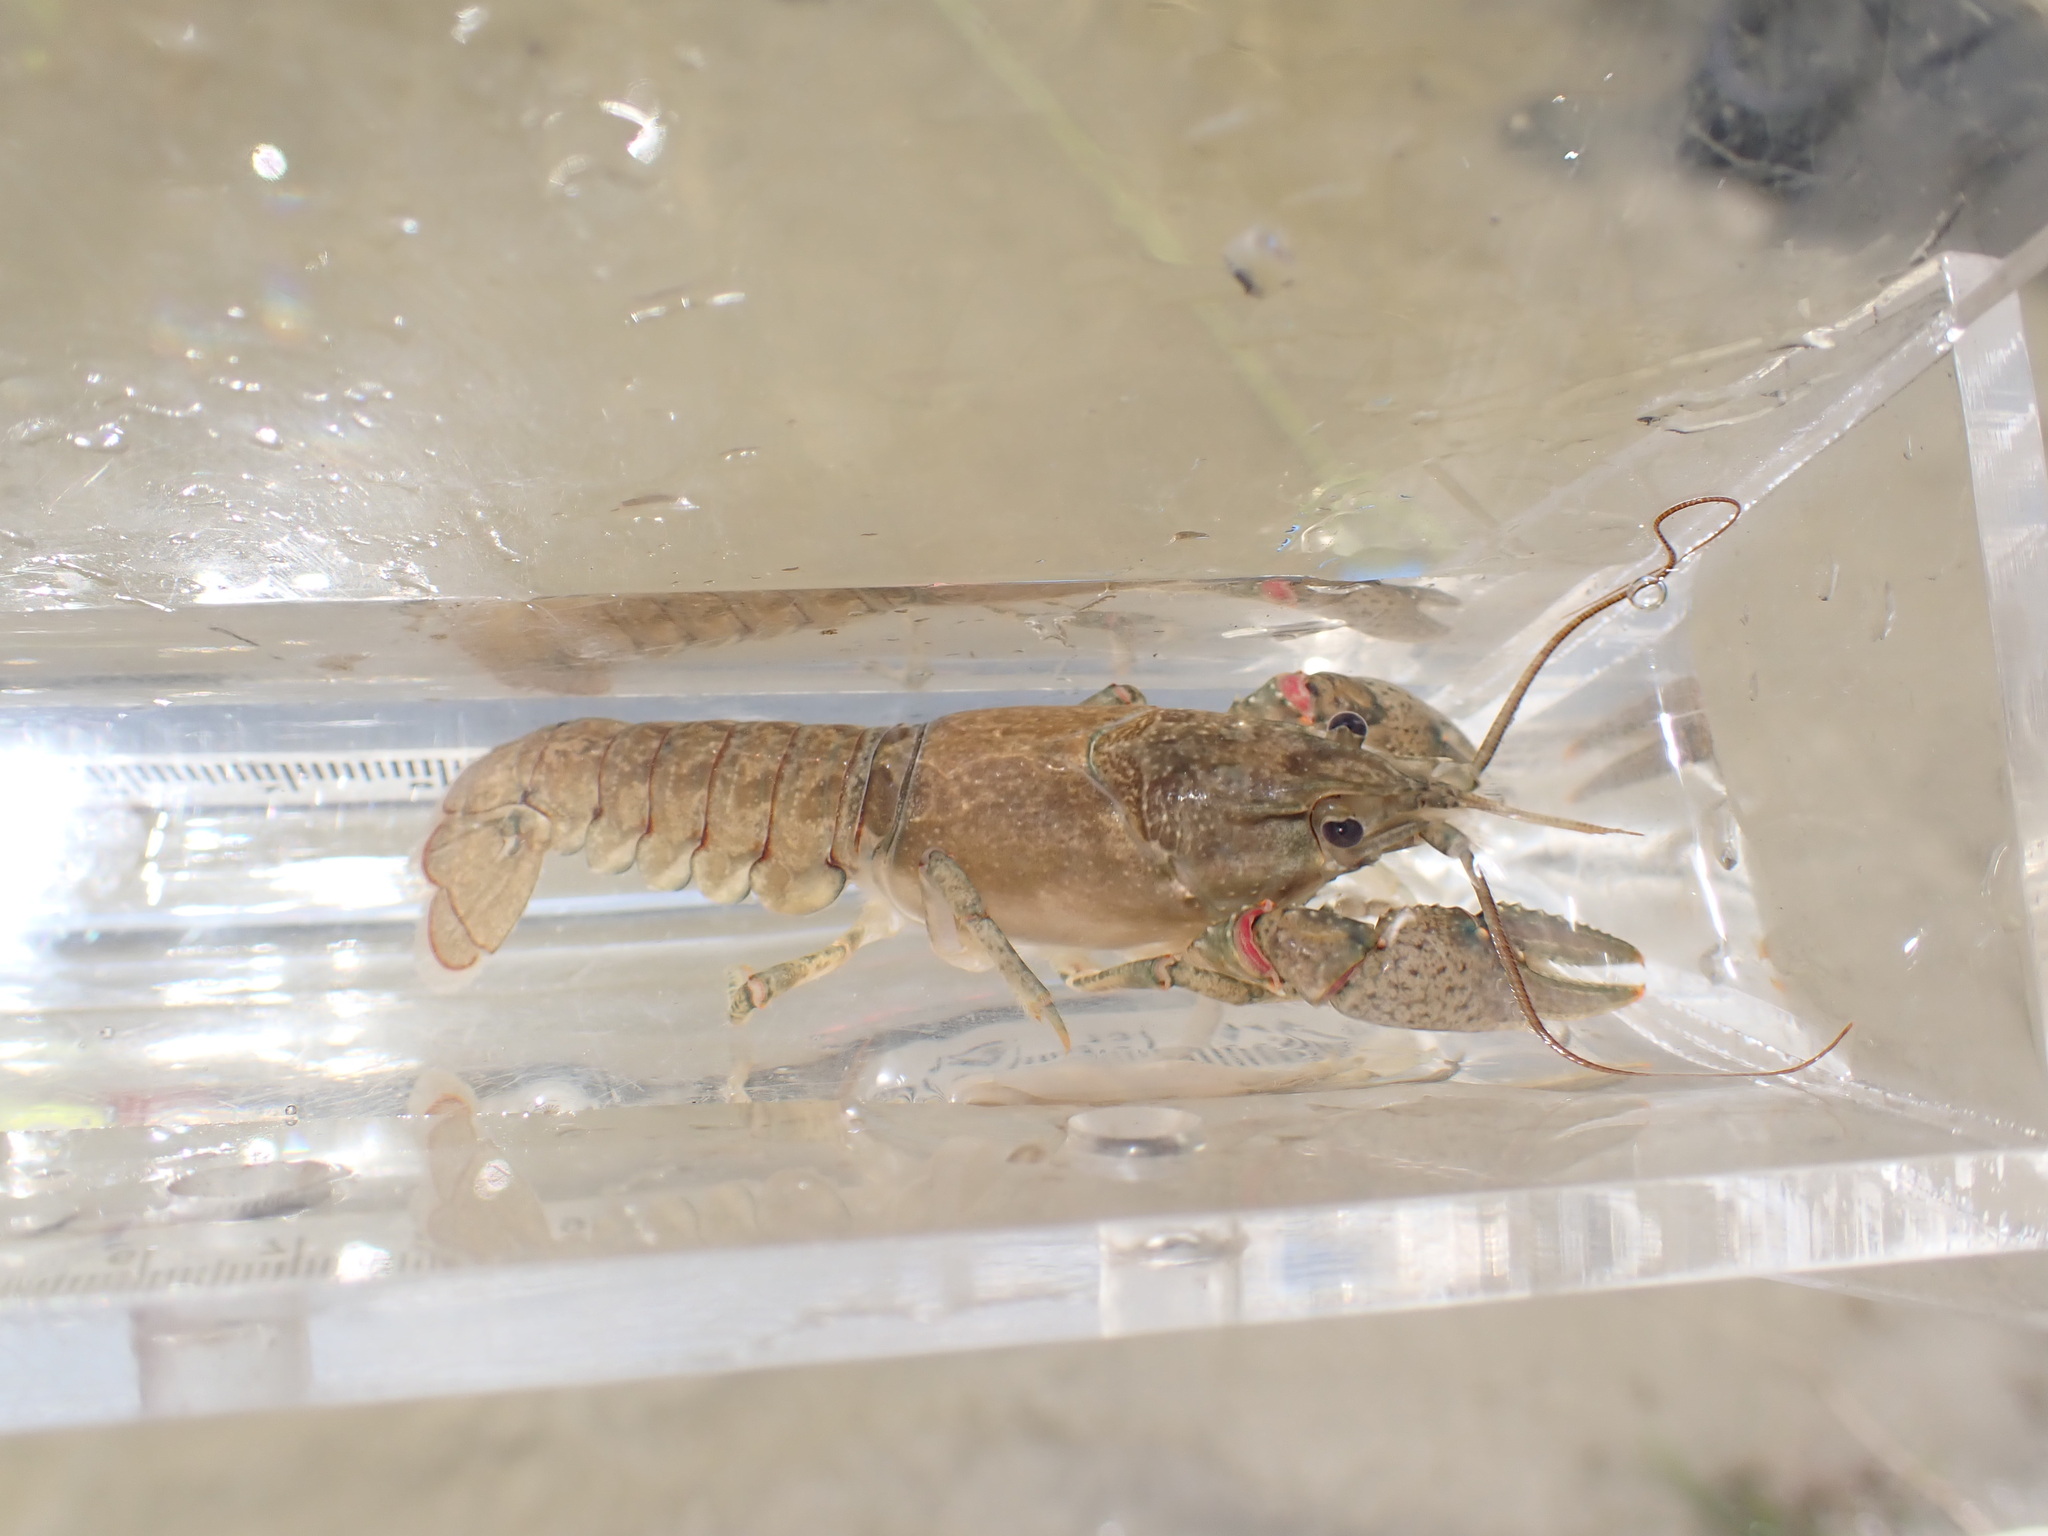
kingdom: Animalia
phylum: Arthropoda
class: Malacostraca
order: Decapoda
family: Cambaridae
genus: Faxonius
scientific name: Faxonius virilis
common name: Virile crayfish
